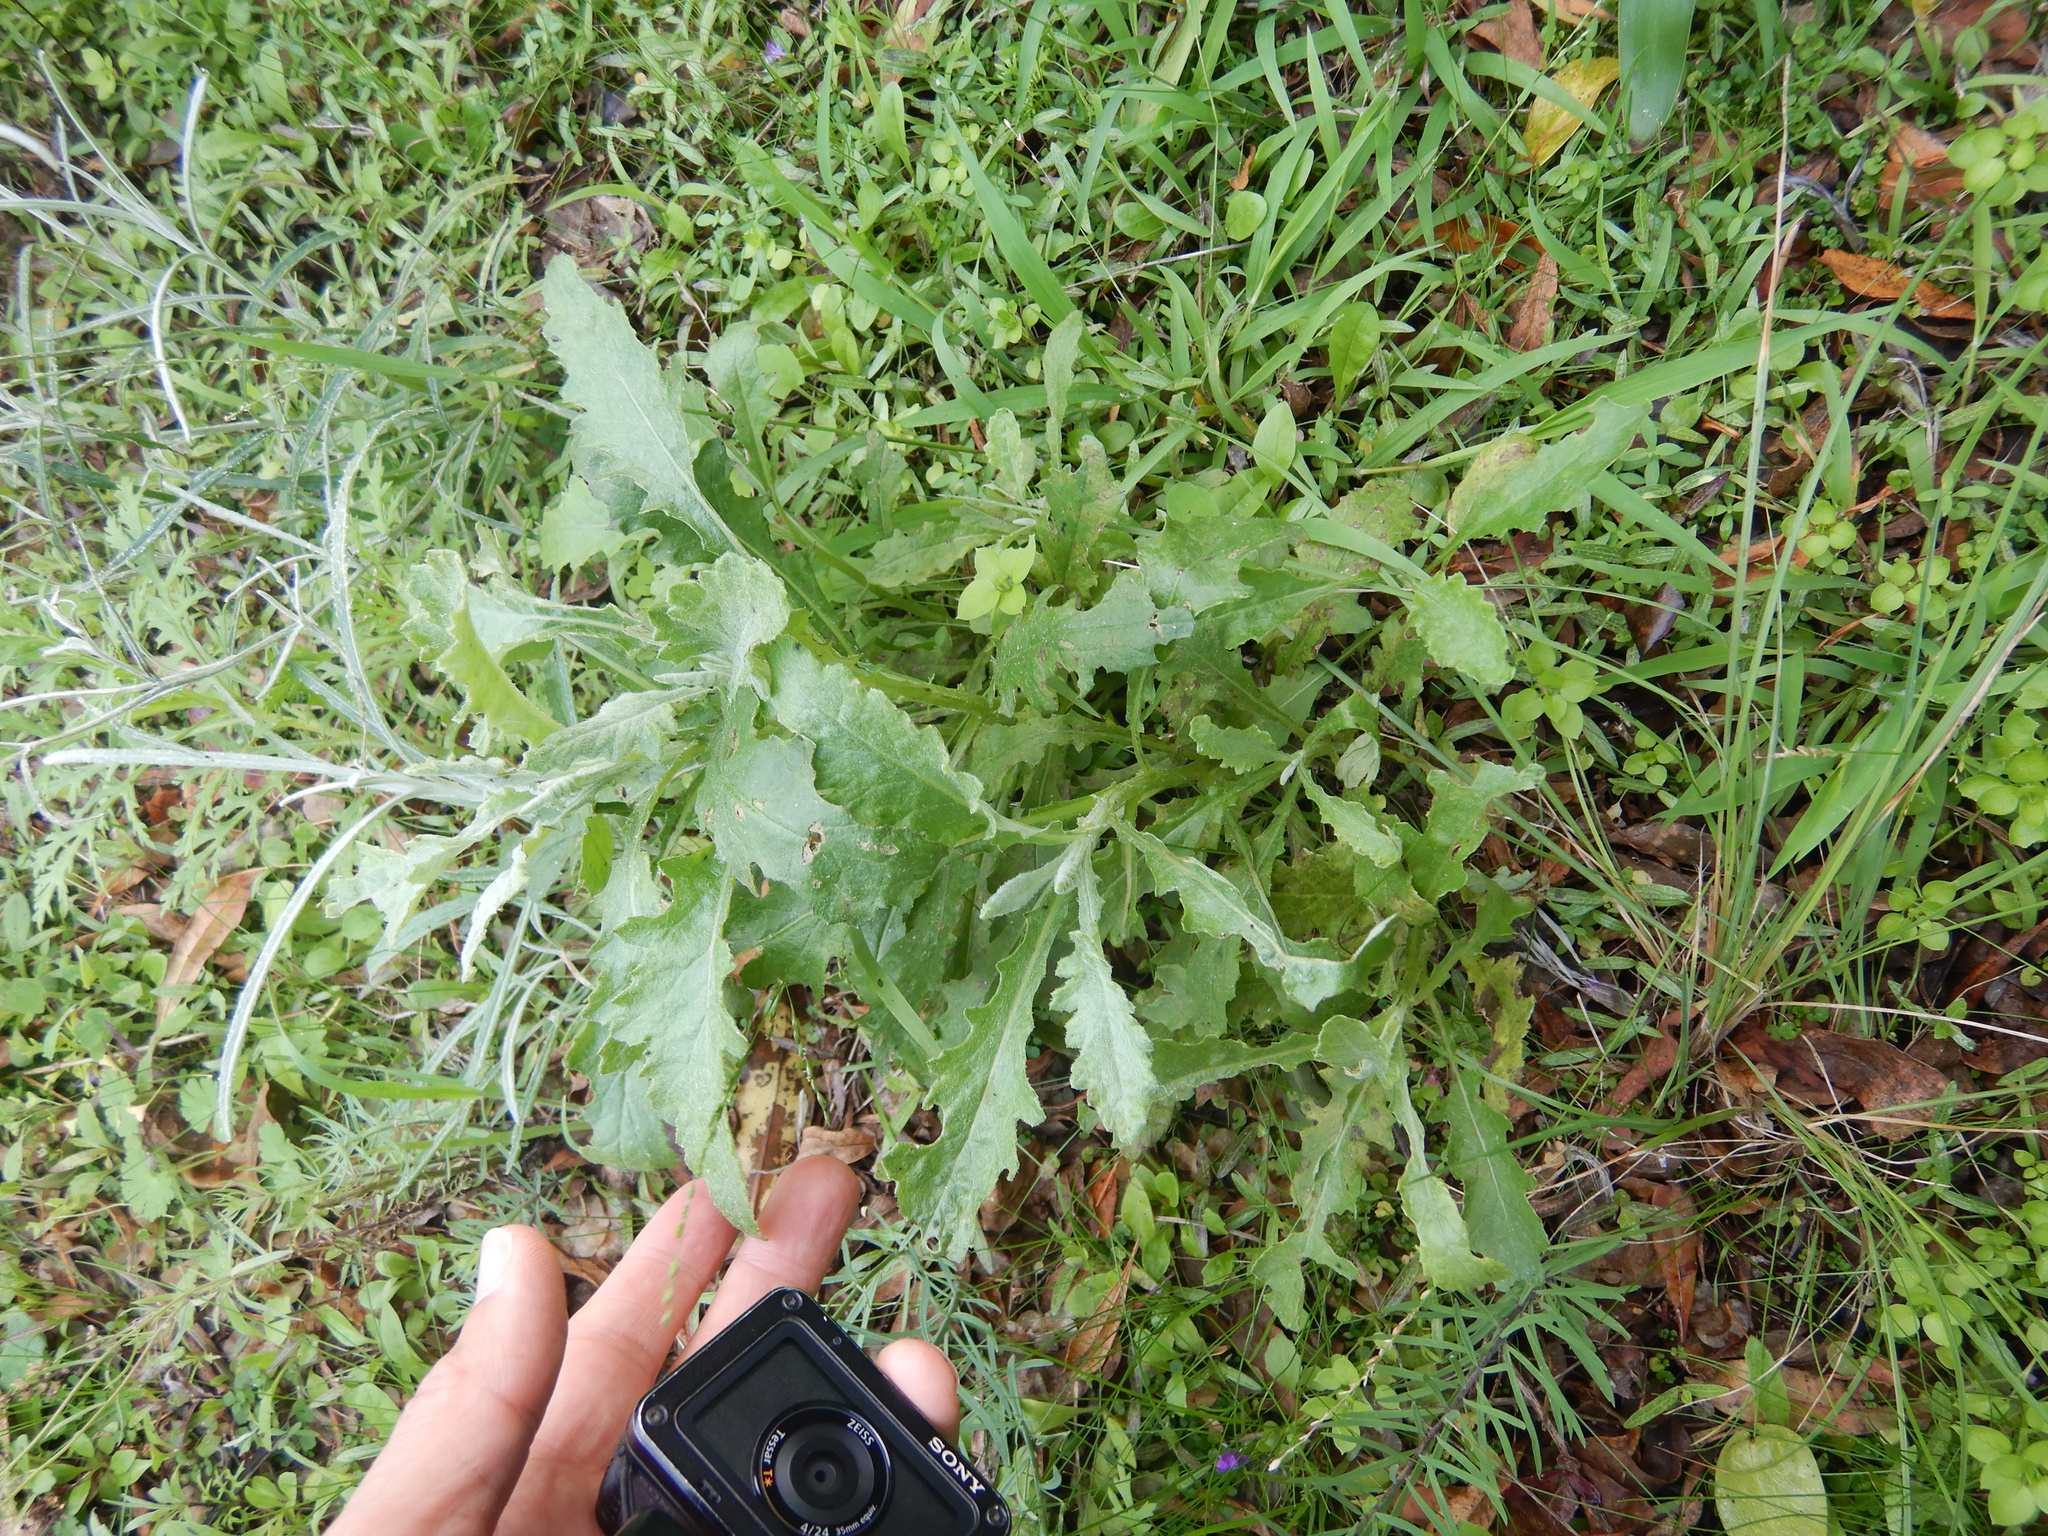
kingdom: Plantae
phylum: Tracheophyta
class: Magnoliopsida
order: Asterales
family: Asteraceae
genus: Senecio
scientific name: Senecio glomeratus
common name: Cutleaf burnweed
